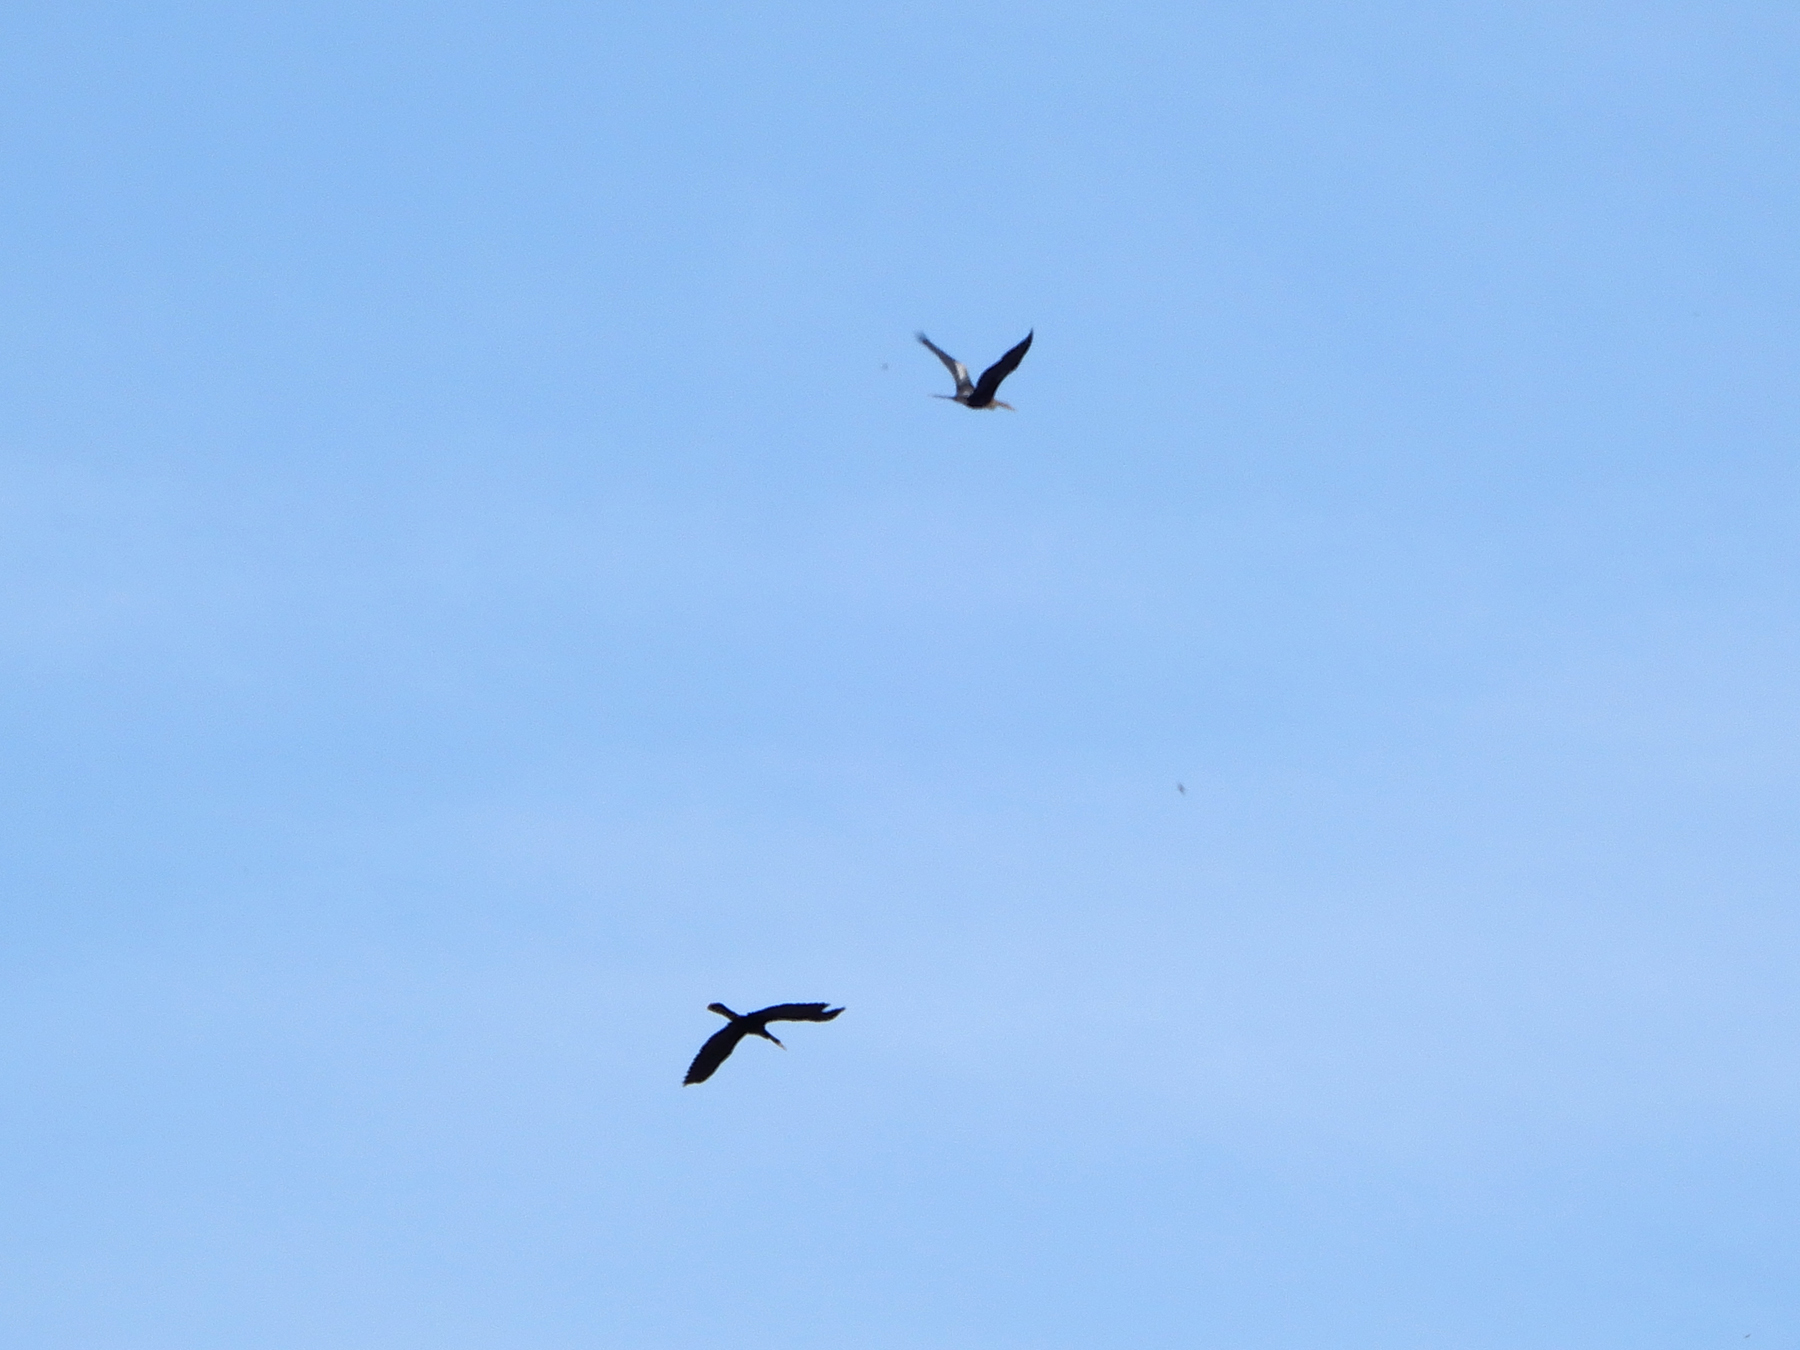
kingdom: Animalia
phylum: Chordata
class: Aves
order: Suliformes
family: Anhingidae
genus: Anhinga
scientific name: Anhinga anhinga
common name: Anhinga
